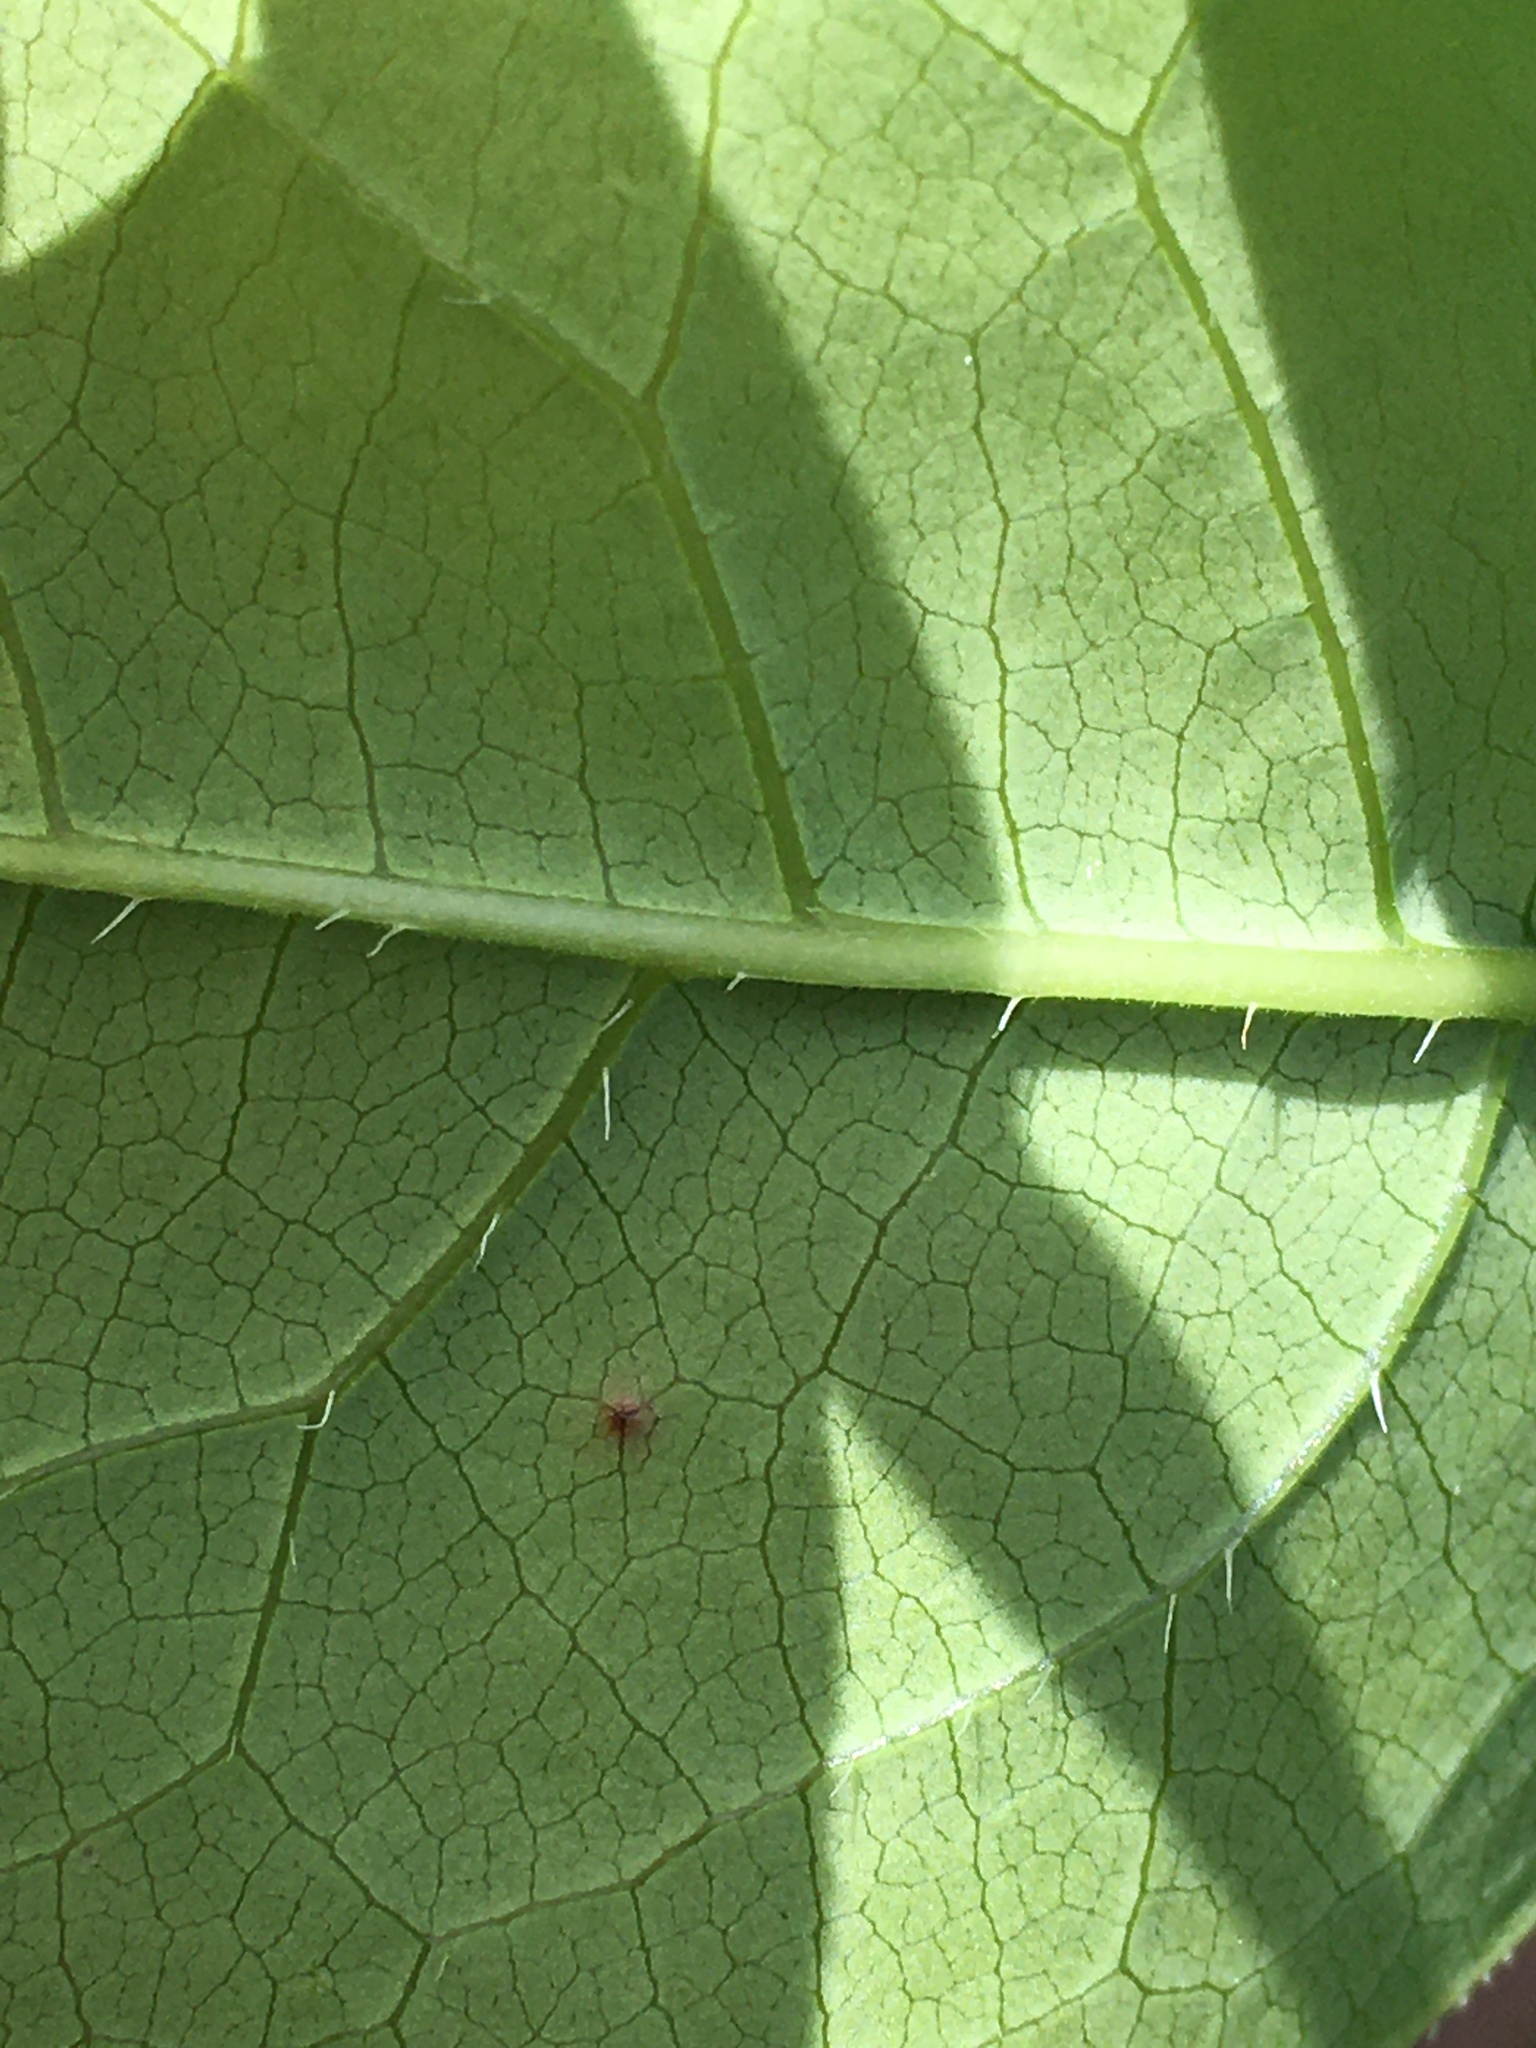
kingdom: Plantae
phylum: Tracheophyta
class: Magnoliopsida
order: Ericales
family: Ericaceae
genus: Oxydendrum
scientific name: Oxydendrum arboreum
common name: Sourwood
